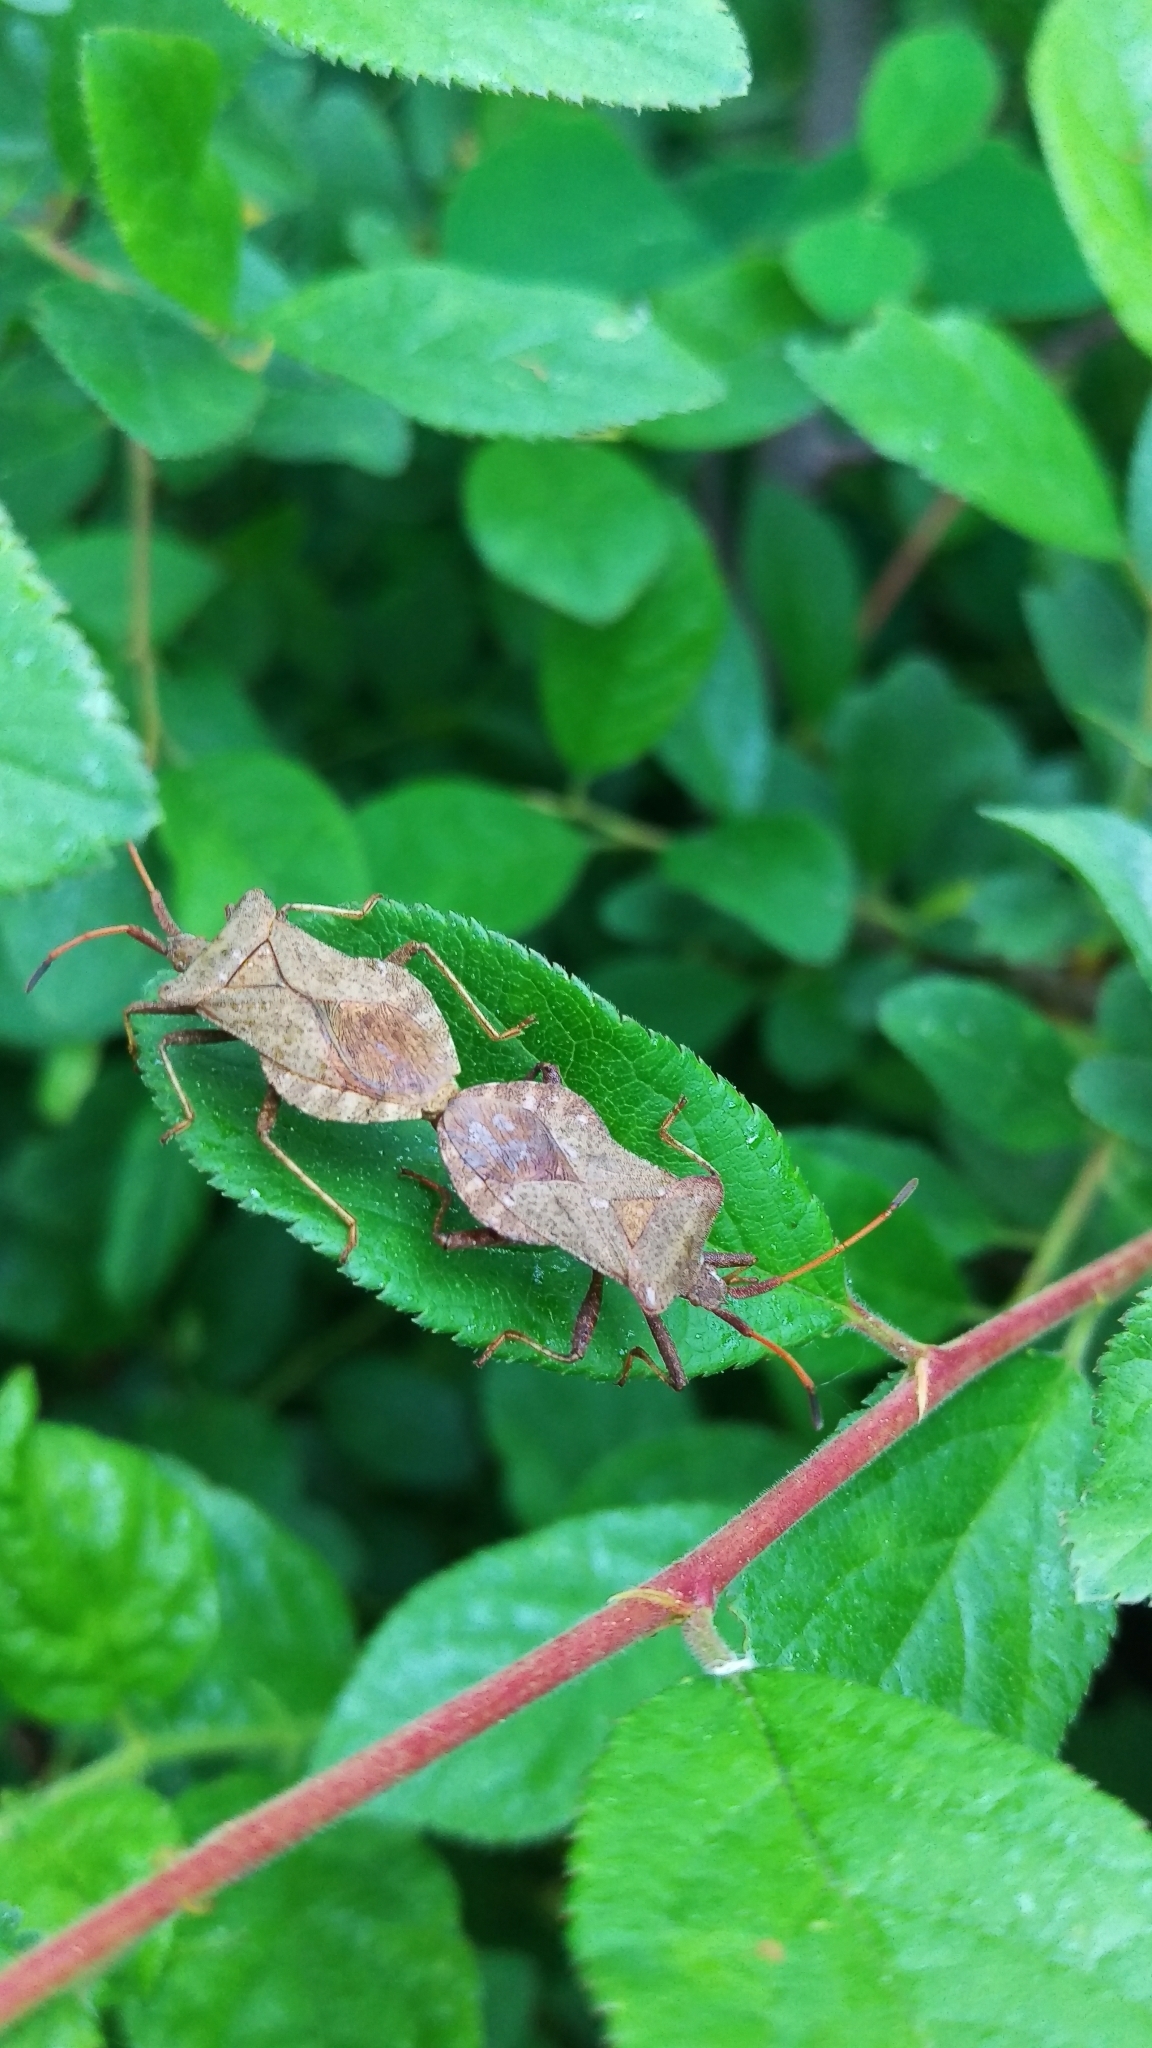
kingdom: Animalia
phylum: Arthropoda
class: Insecta
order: Hemiptera
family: Coreidae
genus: Coreus
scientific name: Coreus marginatus
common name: Dock bug
